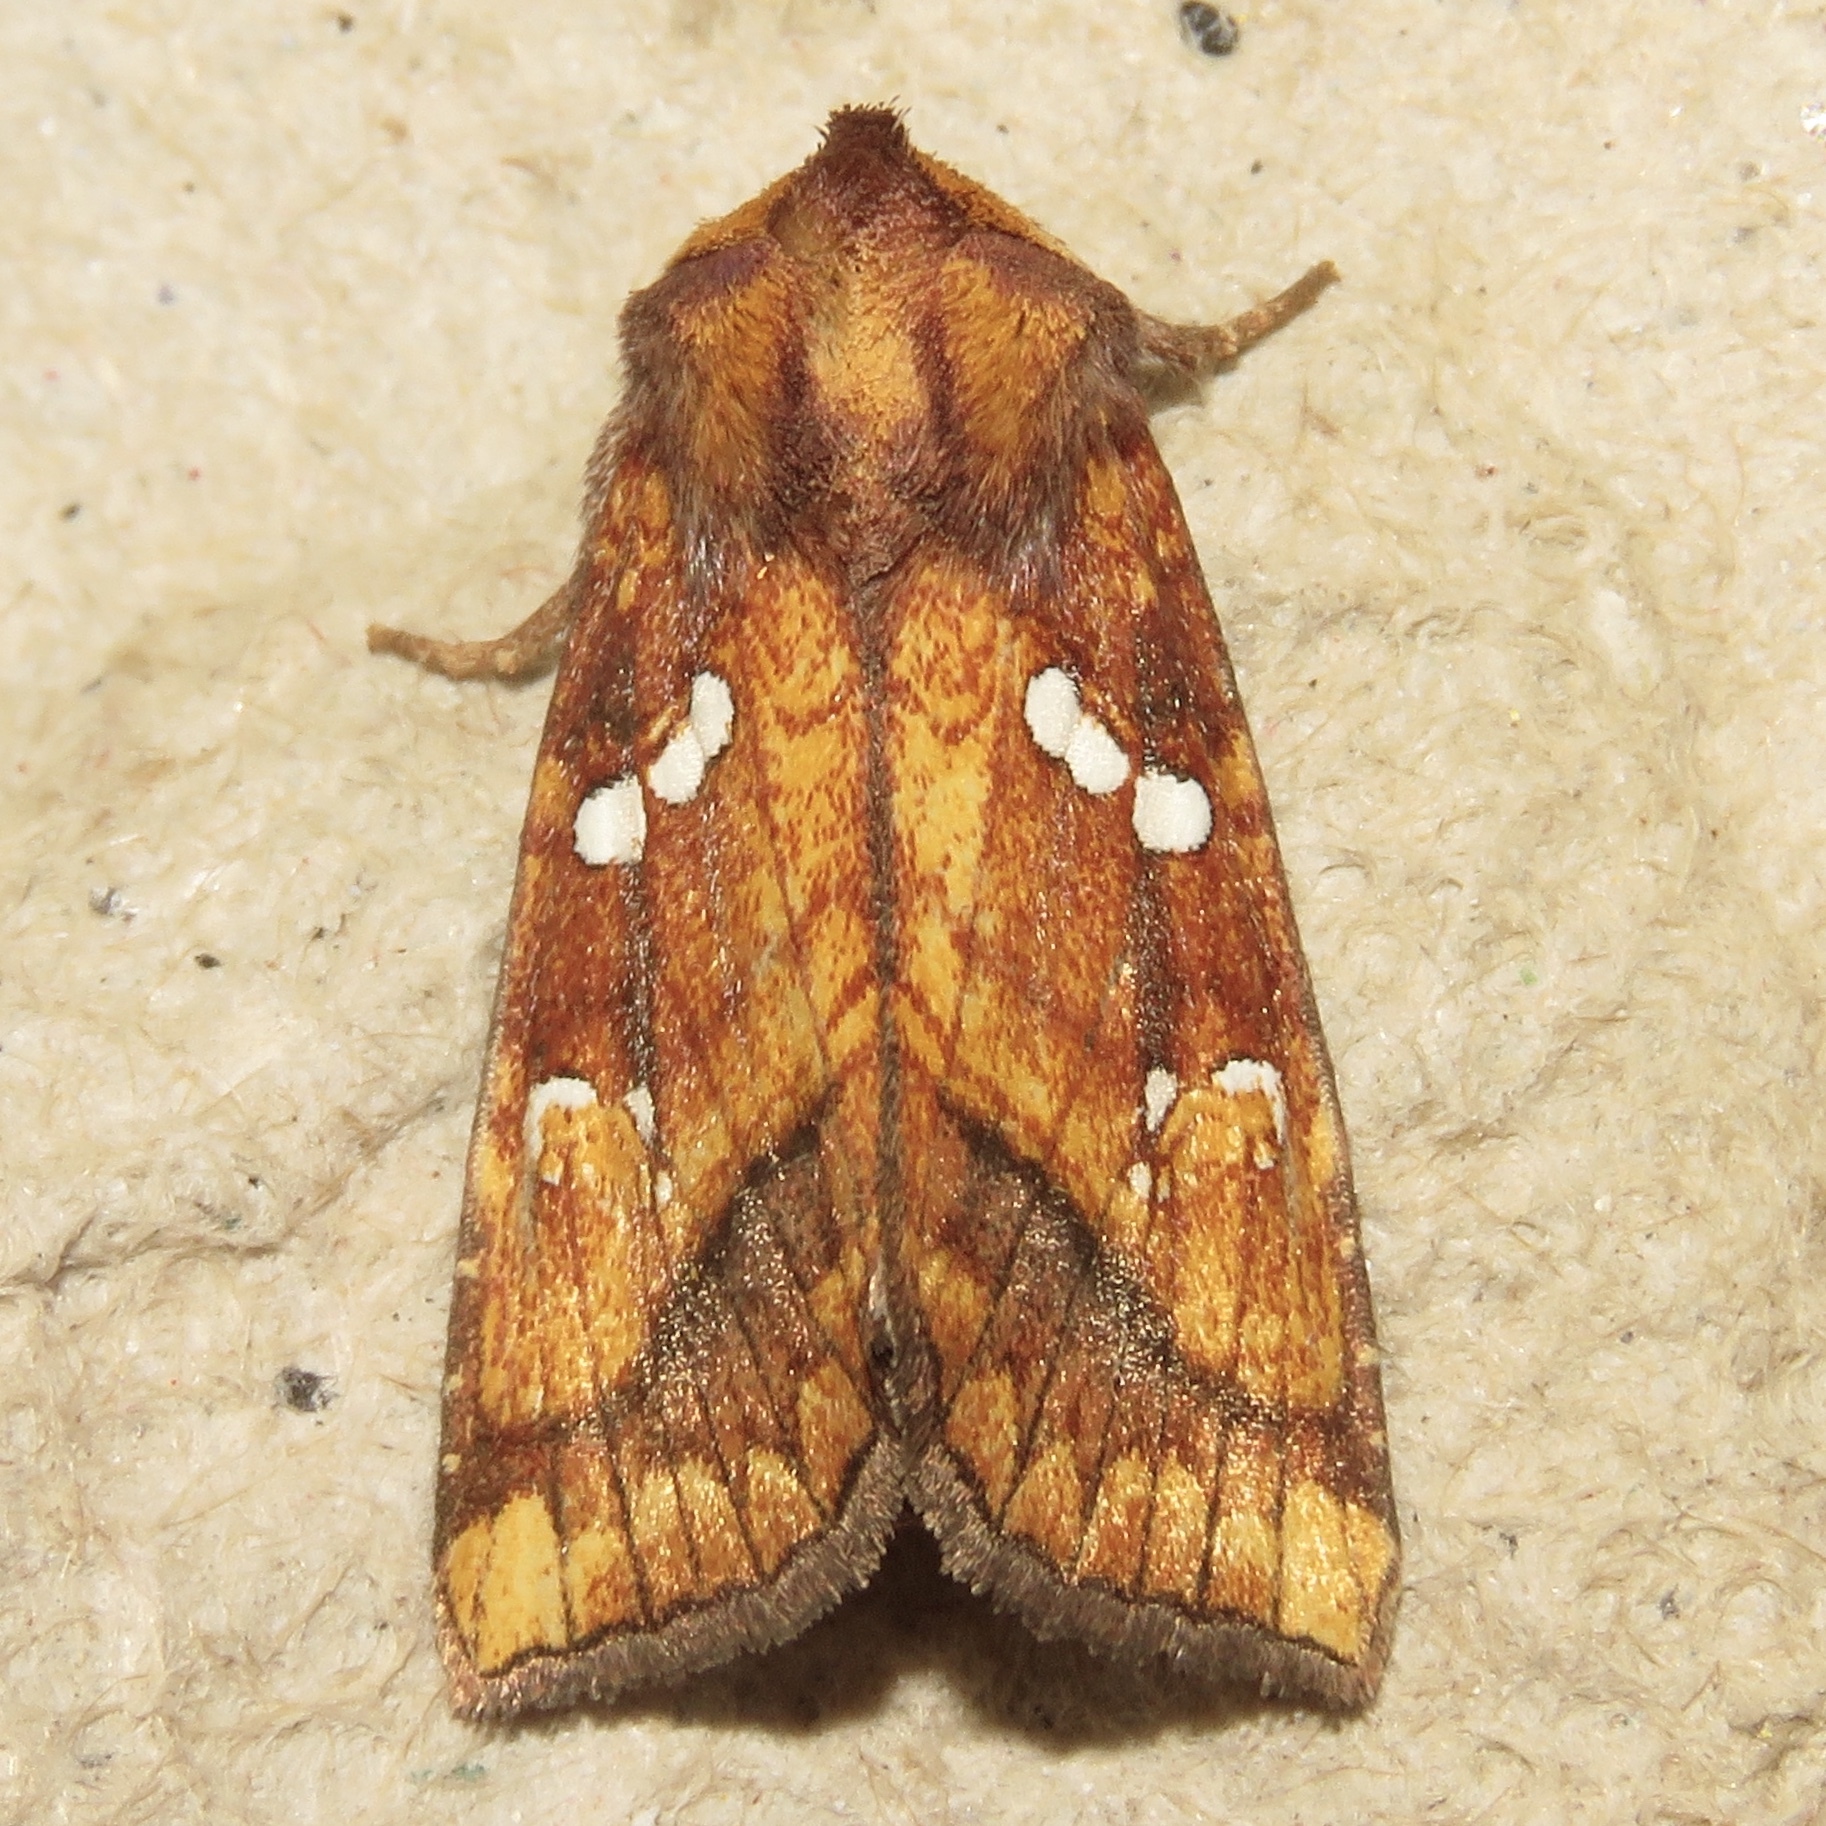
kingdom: Animalia
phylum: Arthropoda
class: Insecta
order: Lepidoptera
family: Noctuidae
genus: Papaipema
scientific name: Papaipema pterisii
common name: Bracken borer moth
